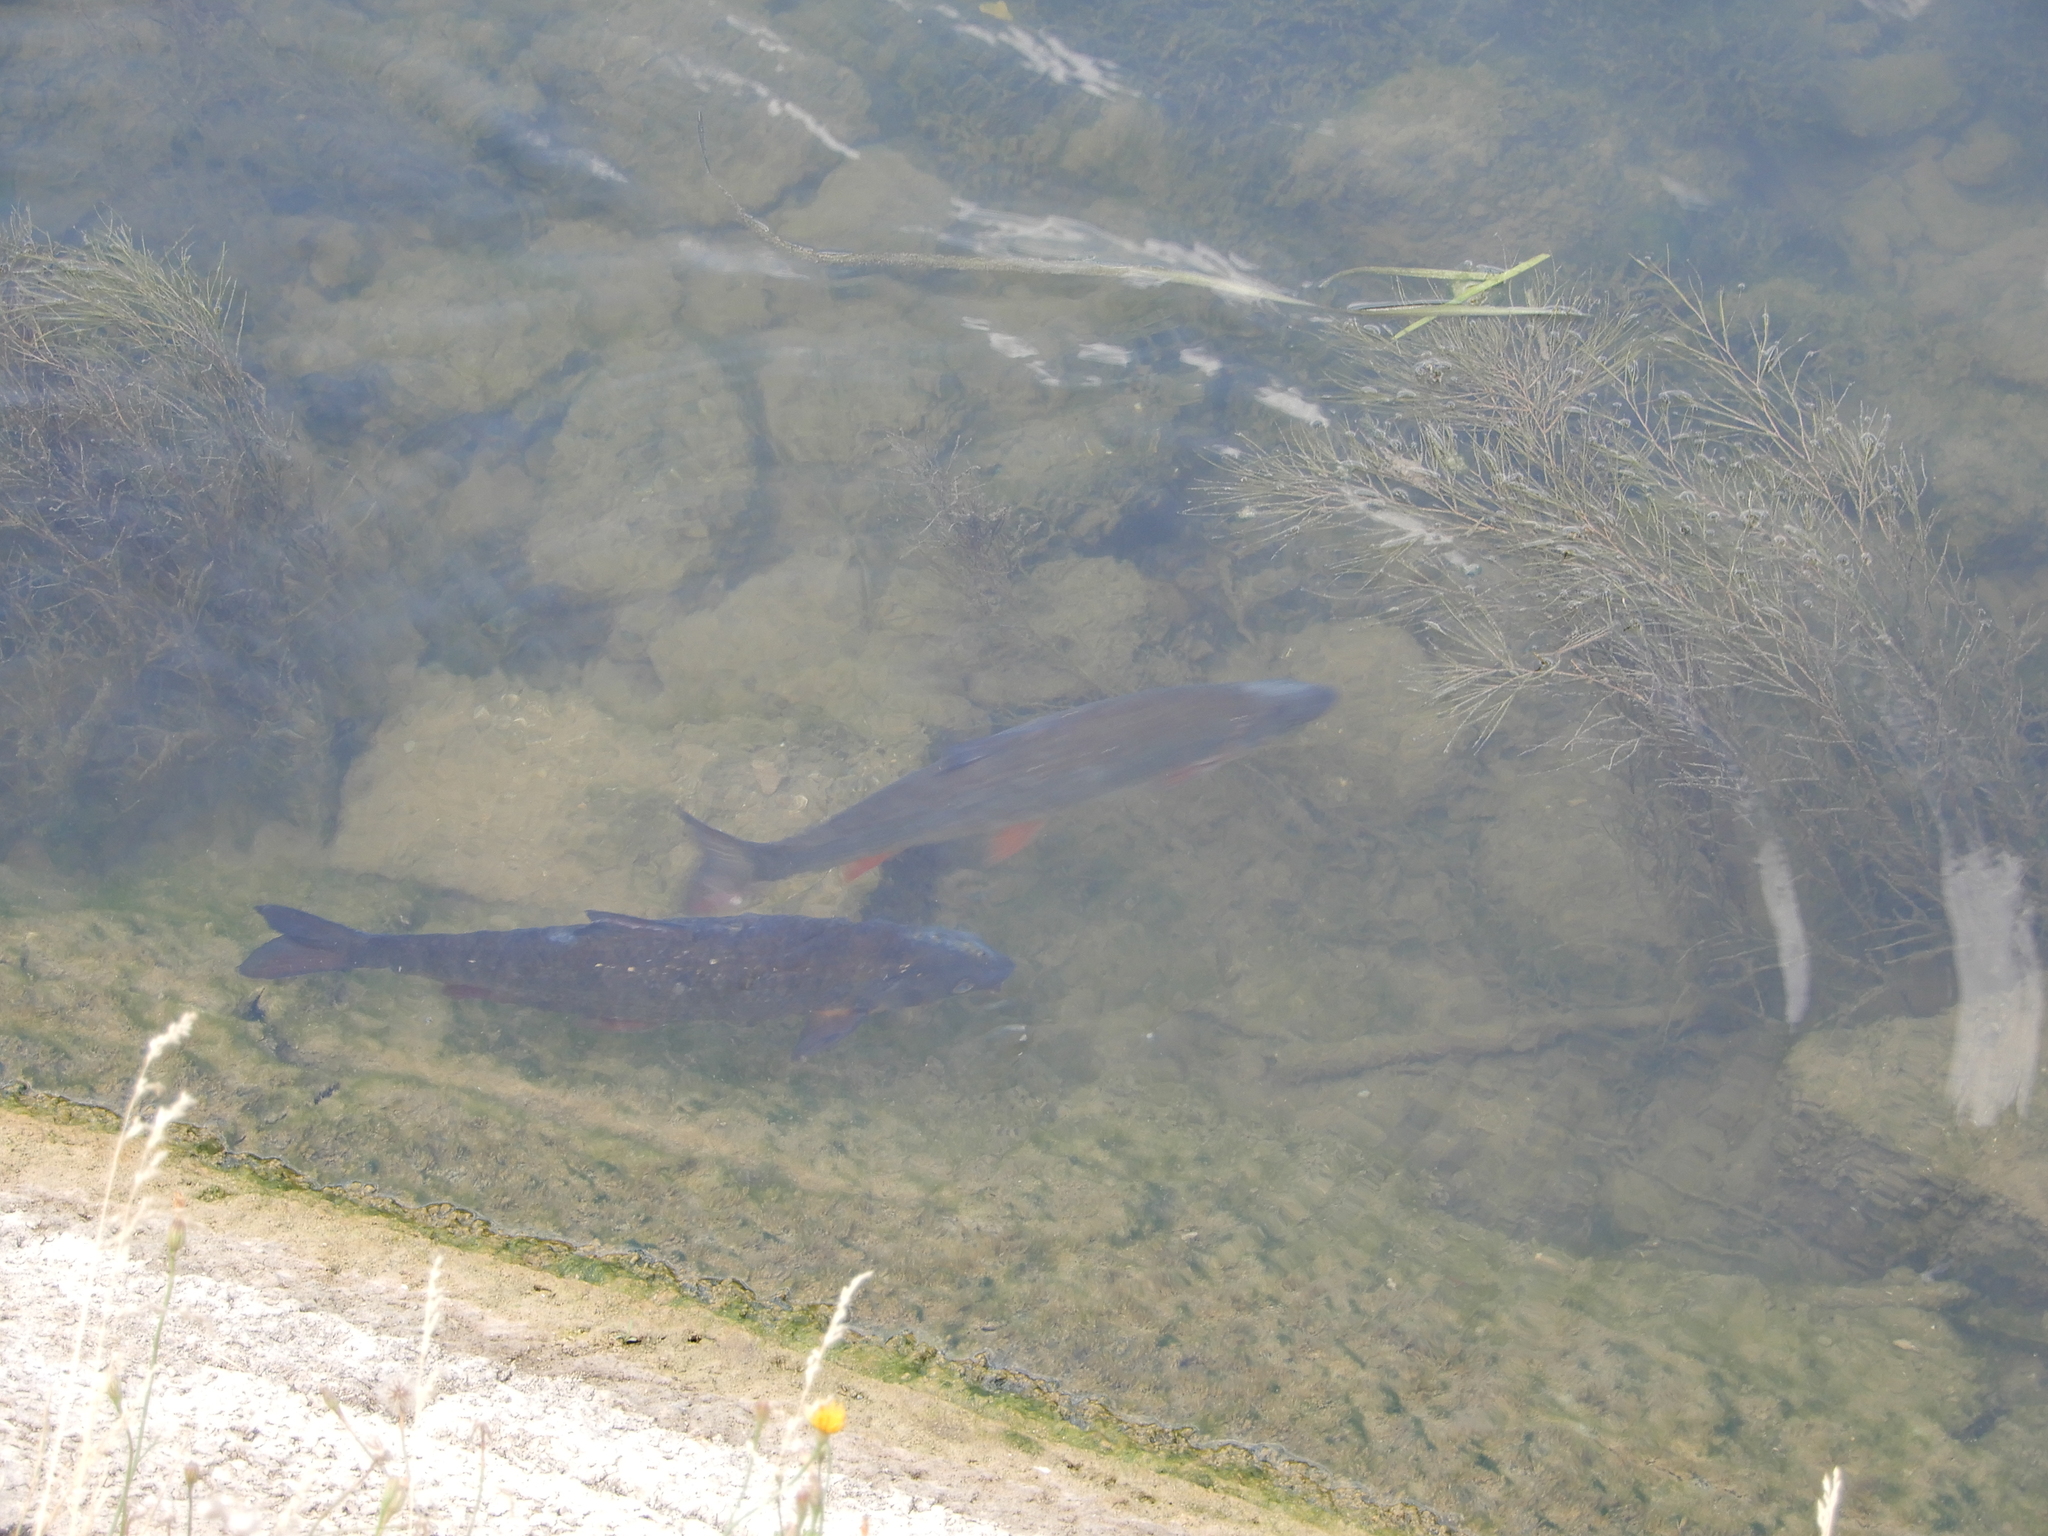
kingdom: Animalia
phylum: Chordata
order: Cypriniformes
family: Cyprinidae
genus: Chondrostoma
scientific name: Chondrostoma nasus
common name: Nase
